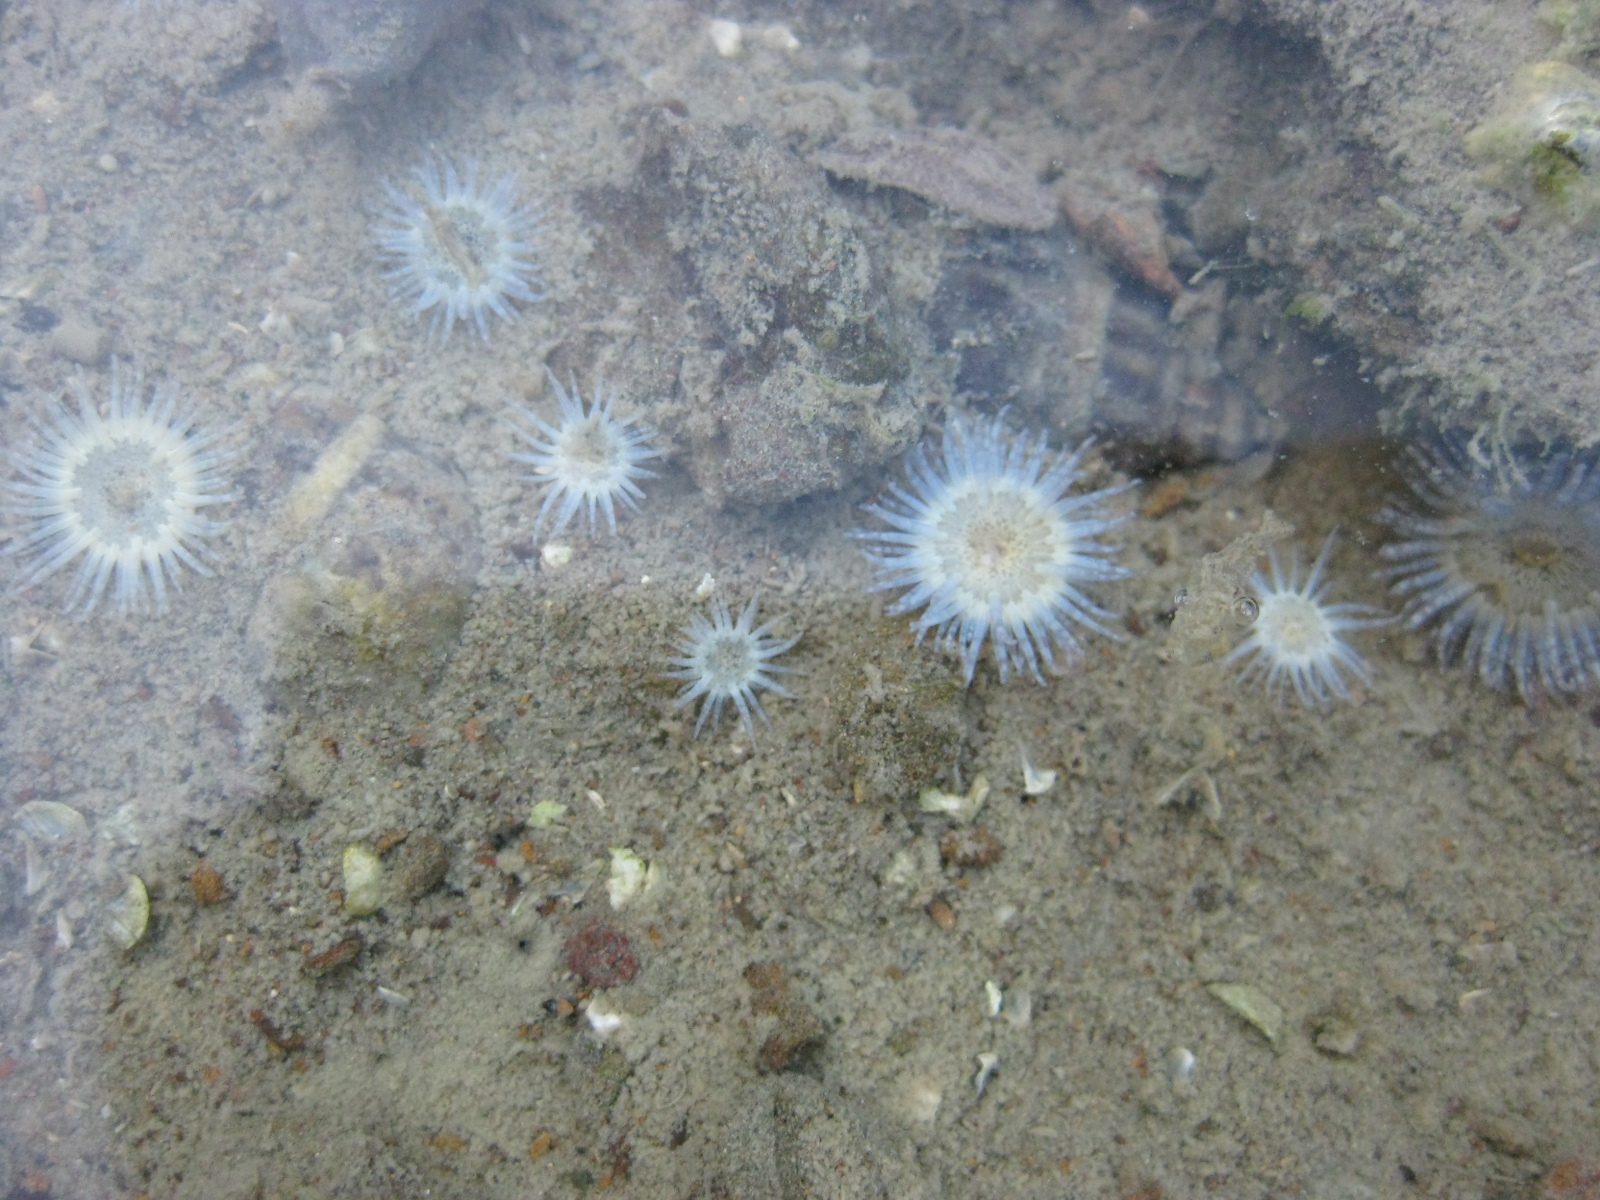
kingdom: Animalia
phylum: Cnidaria
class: Anthozoa
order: Actiniaria
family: Actiniidae
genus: Anthopleura
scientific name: Anthopleura hermaphroditica
